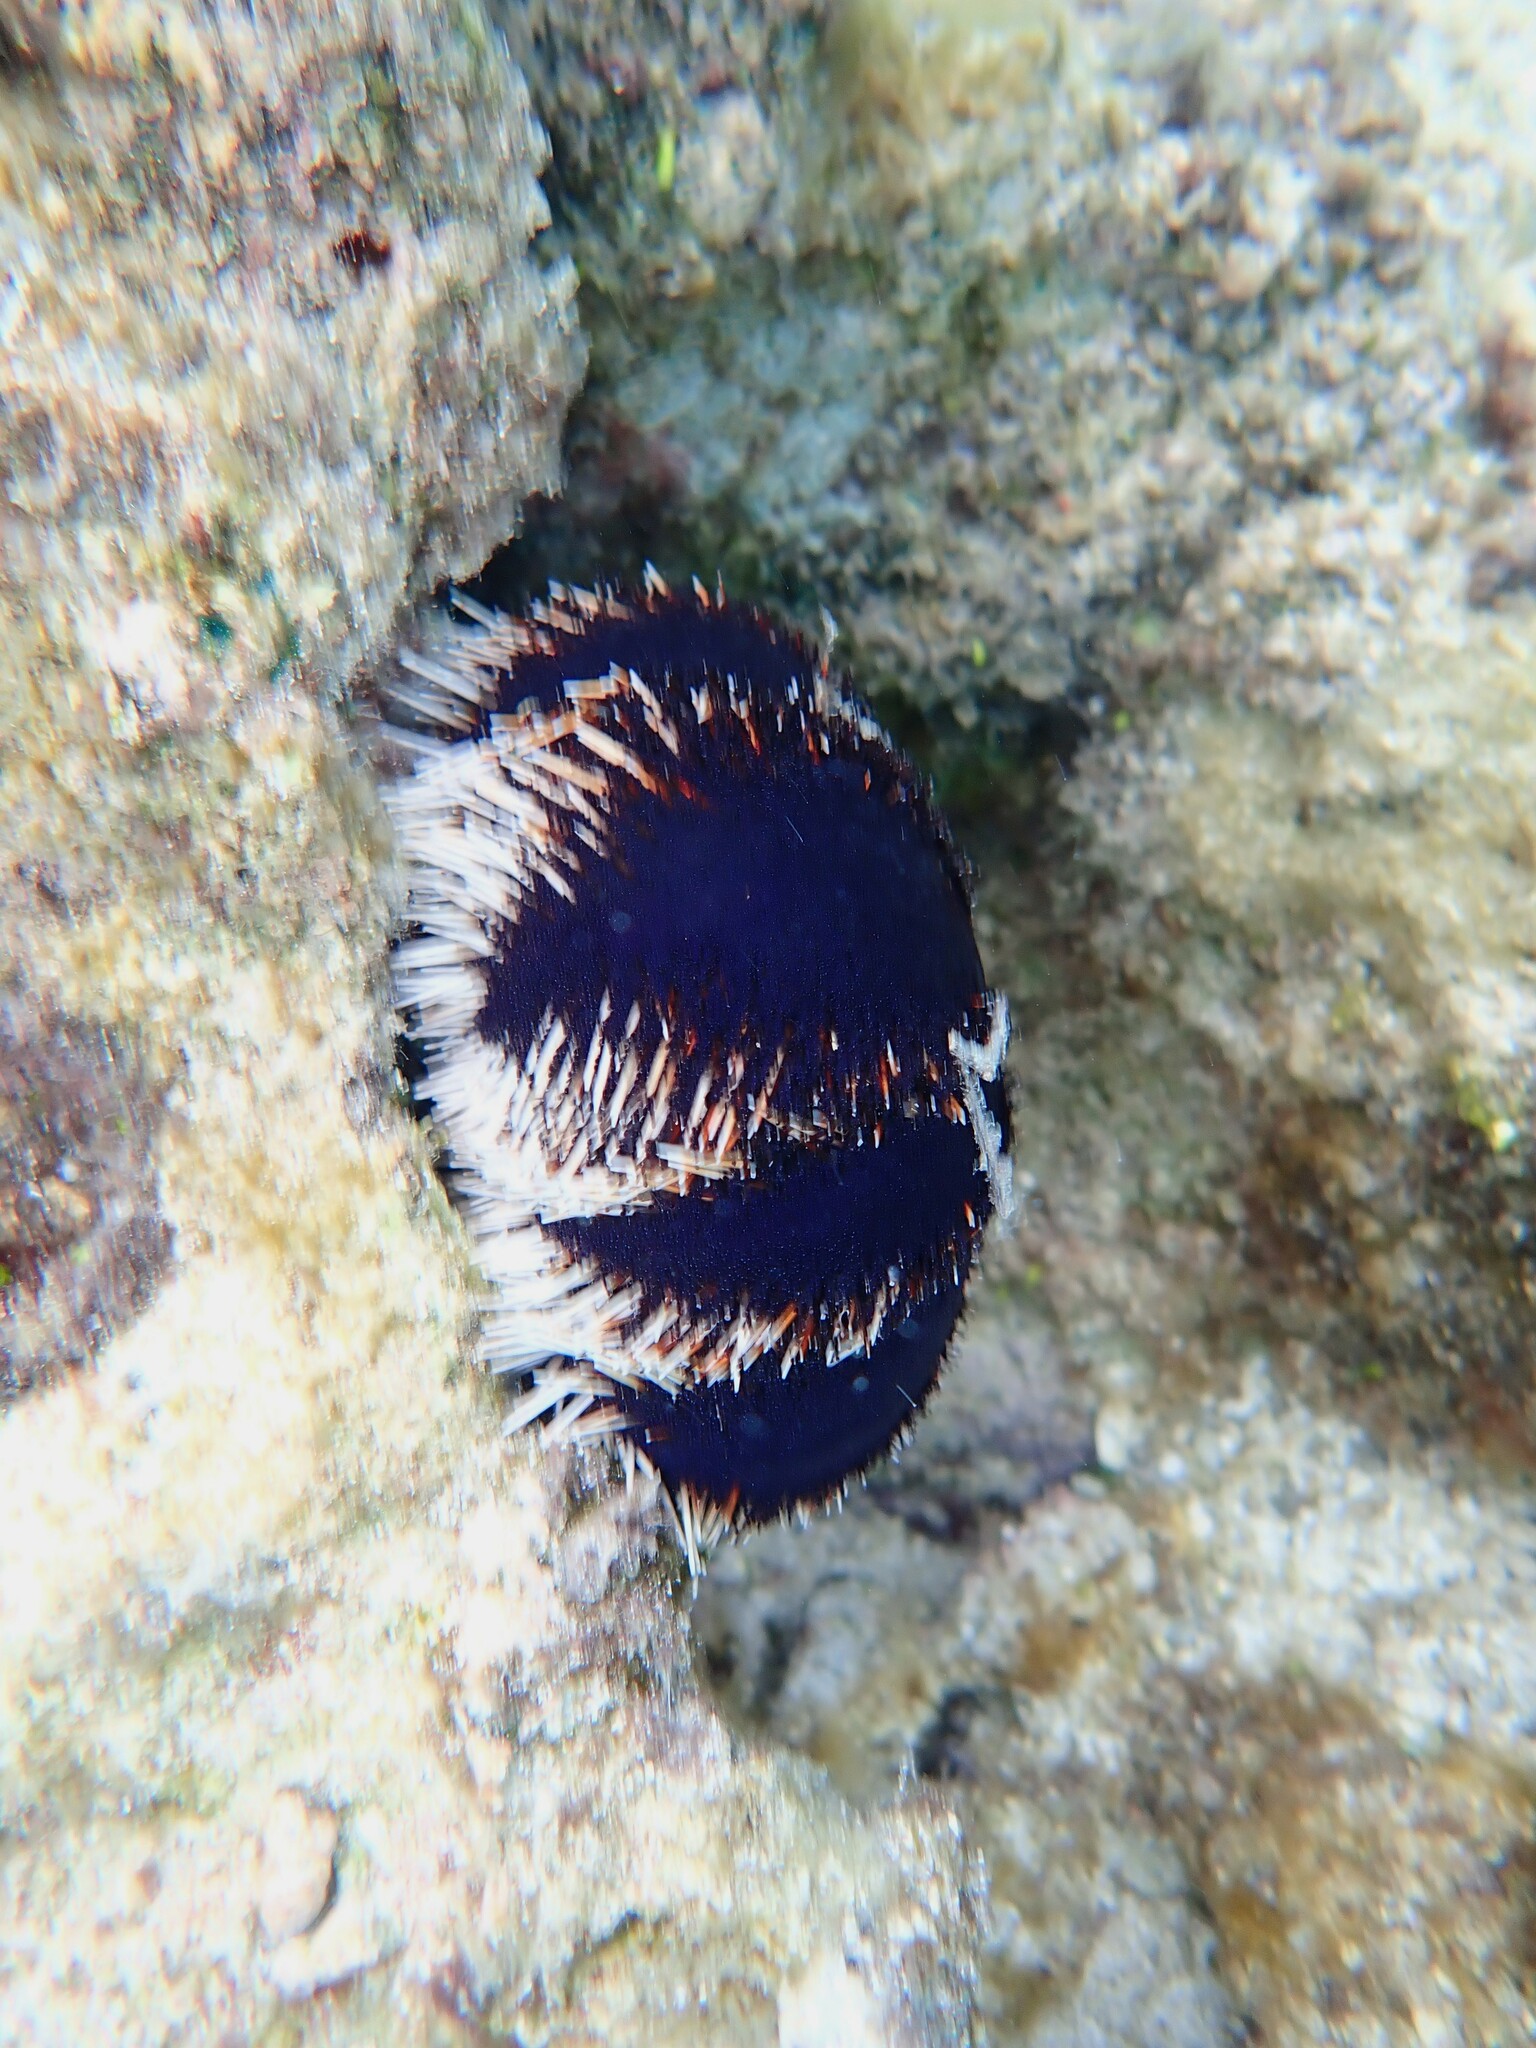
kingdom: Animalia
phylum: Echinodermata
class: Echinoidea
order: Camarodonta
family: Toxopneustidae
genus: Tripneustes
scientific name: Tripneustes gratilla
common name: Bischofsmützenseeigel
